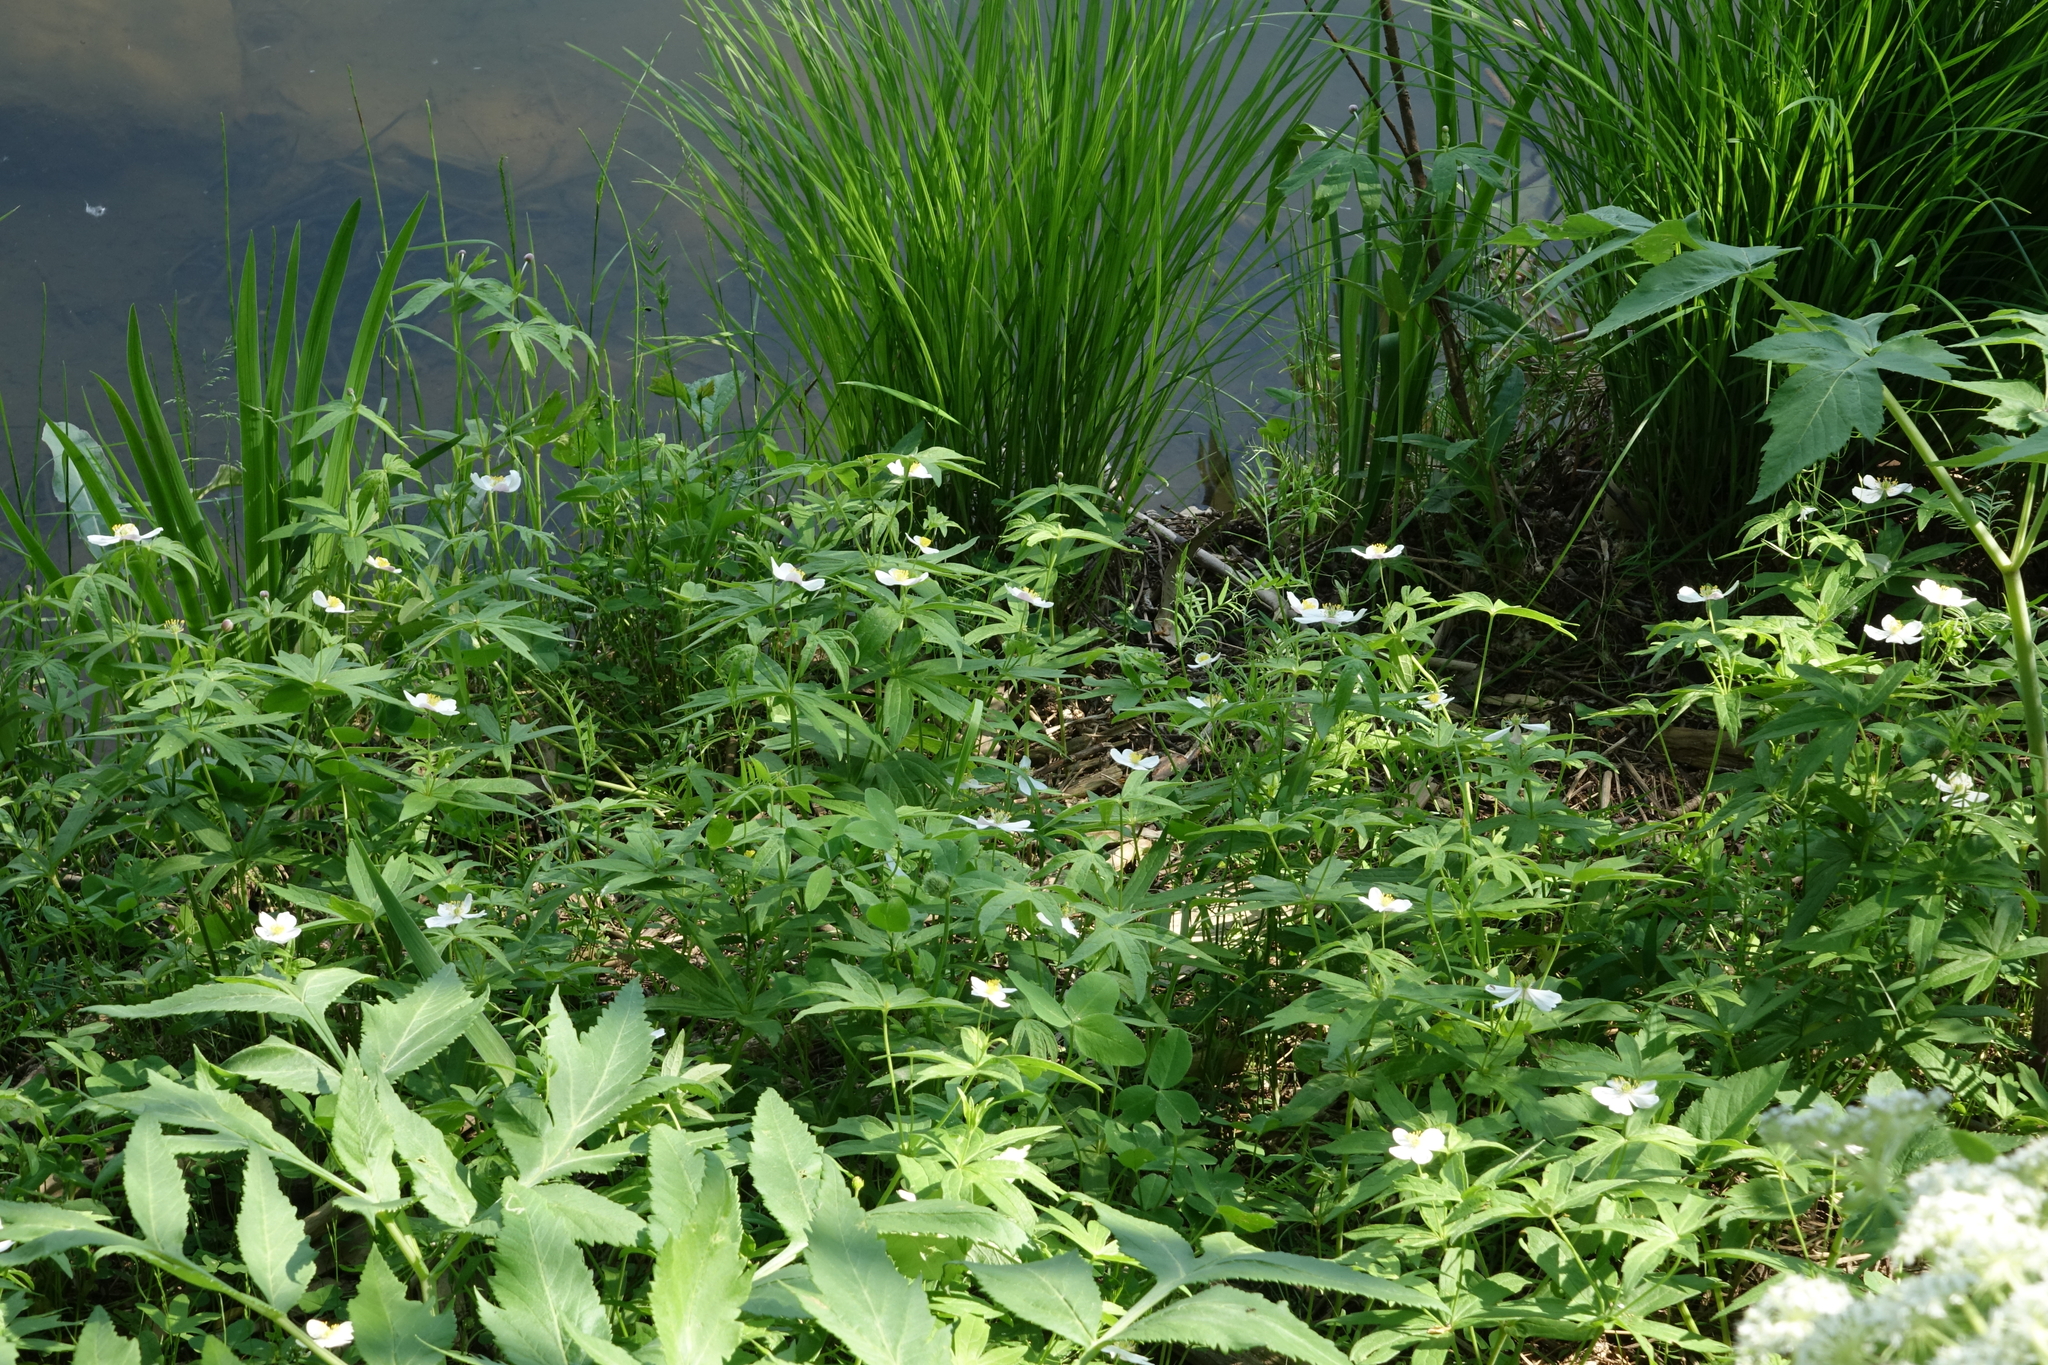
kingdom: Plantae
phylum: Tracheophyta
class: Magnoliopsida
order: Ranunculales
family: Ranunculaceae
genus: Anemonastrum
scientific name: Anemonastrum dichotomum
